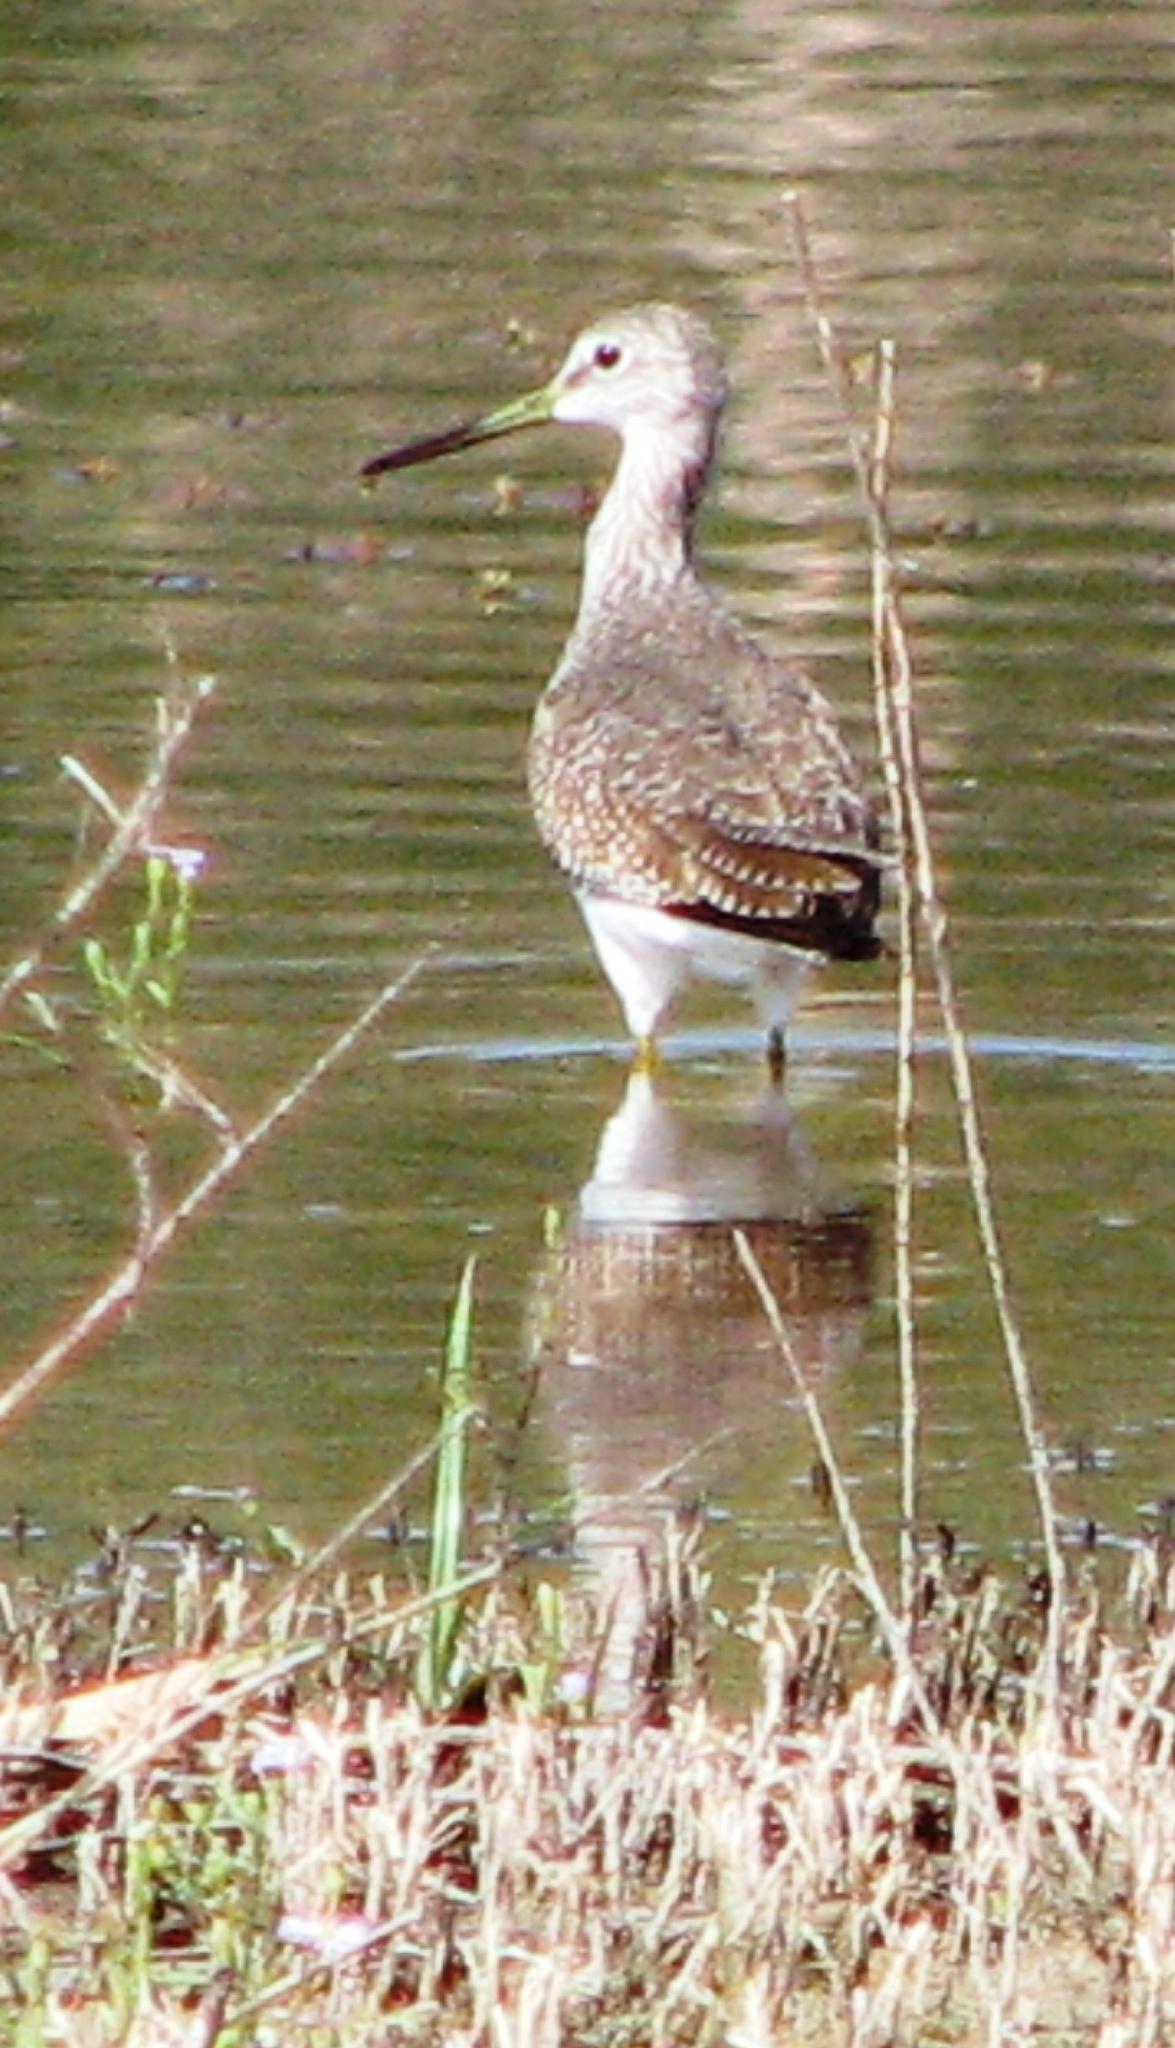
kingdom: Animalia
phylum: Chordata
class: Aves
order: Charadriiformes
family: Scolopacidae
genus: Tringa
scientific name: Tringa melanoleuca
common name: Greater yellowlegs
